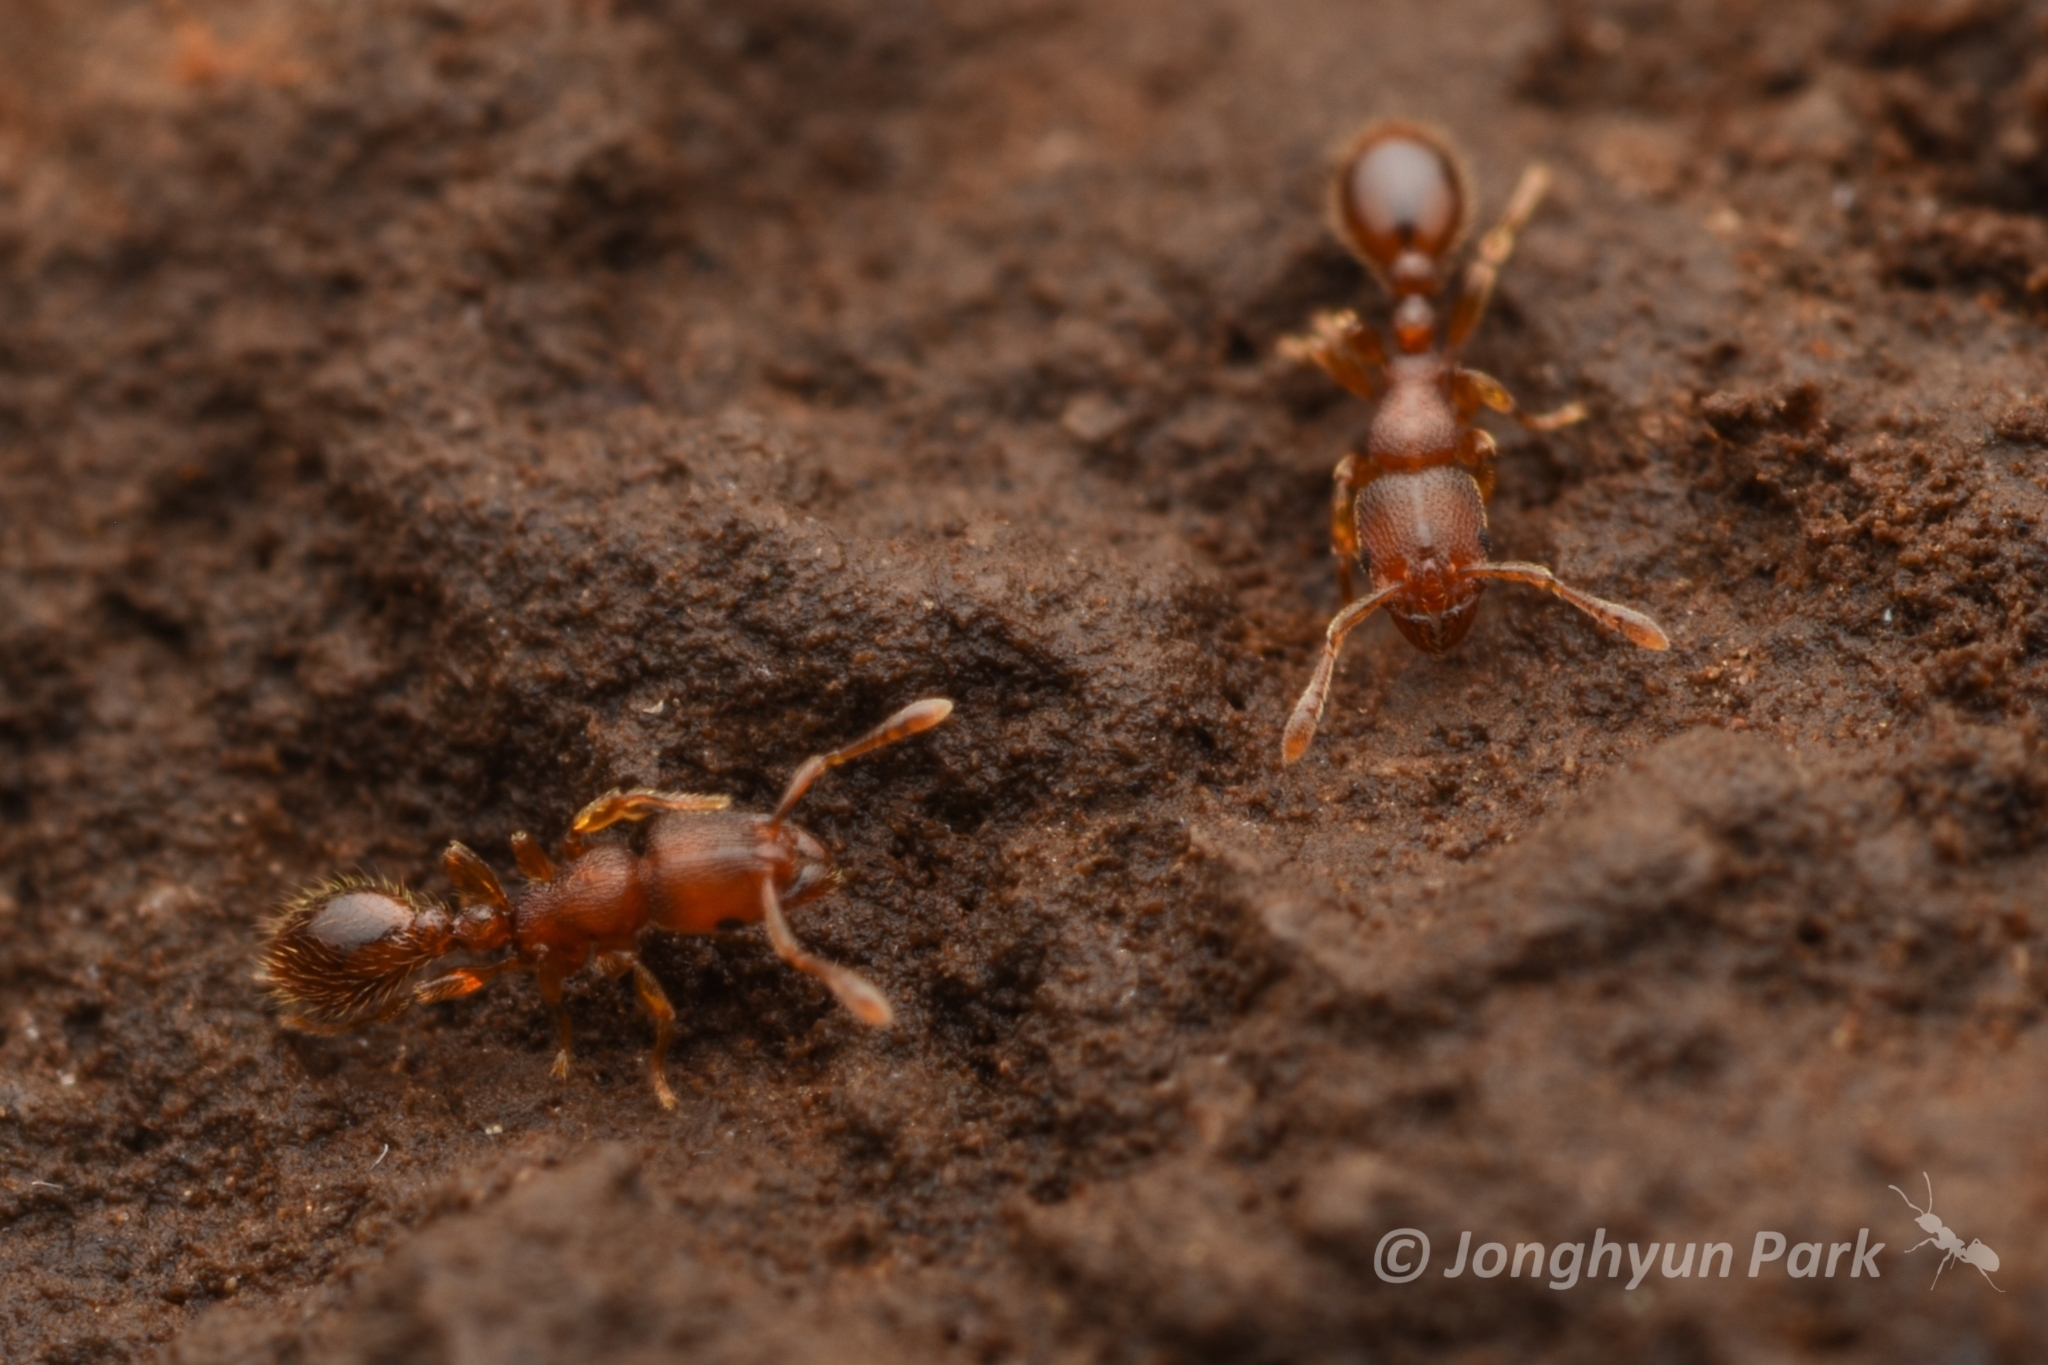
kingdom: Animalia
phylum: Arthropoda
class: Insecta
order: Hymenoptera
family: Formicidae
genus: Vollenhovia
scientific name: Vollenhovia emeryi
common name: Ant
